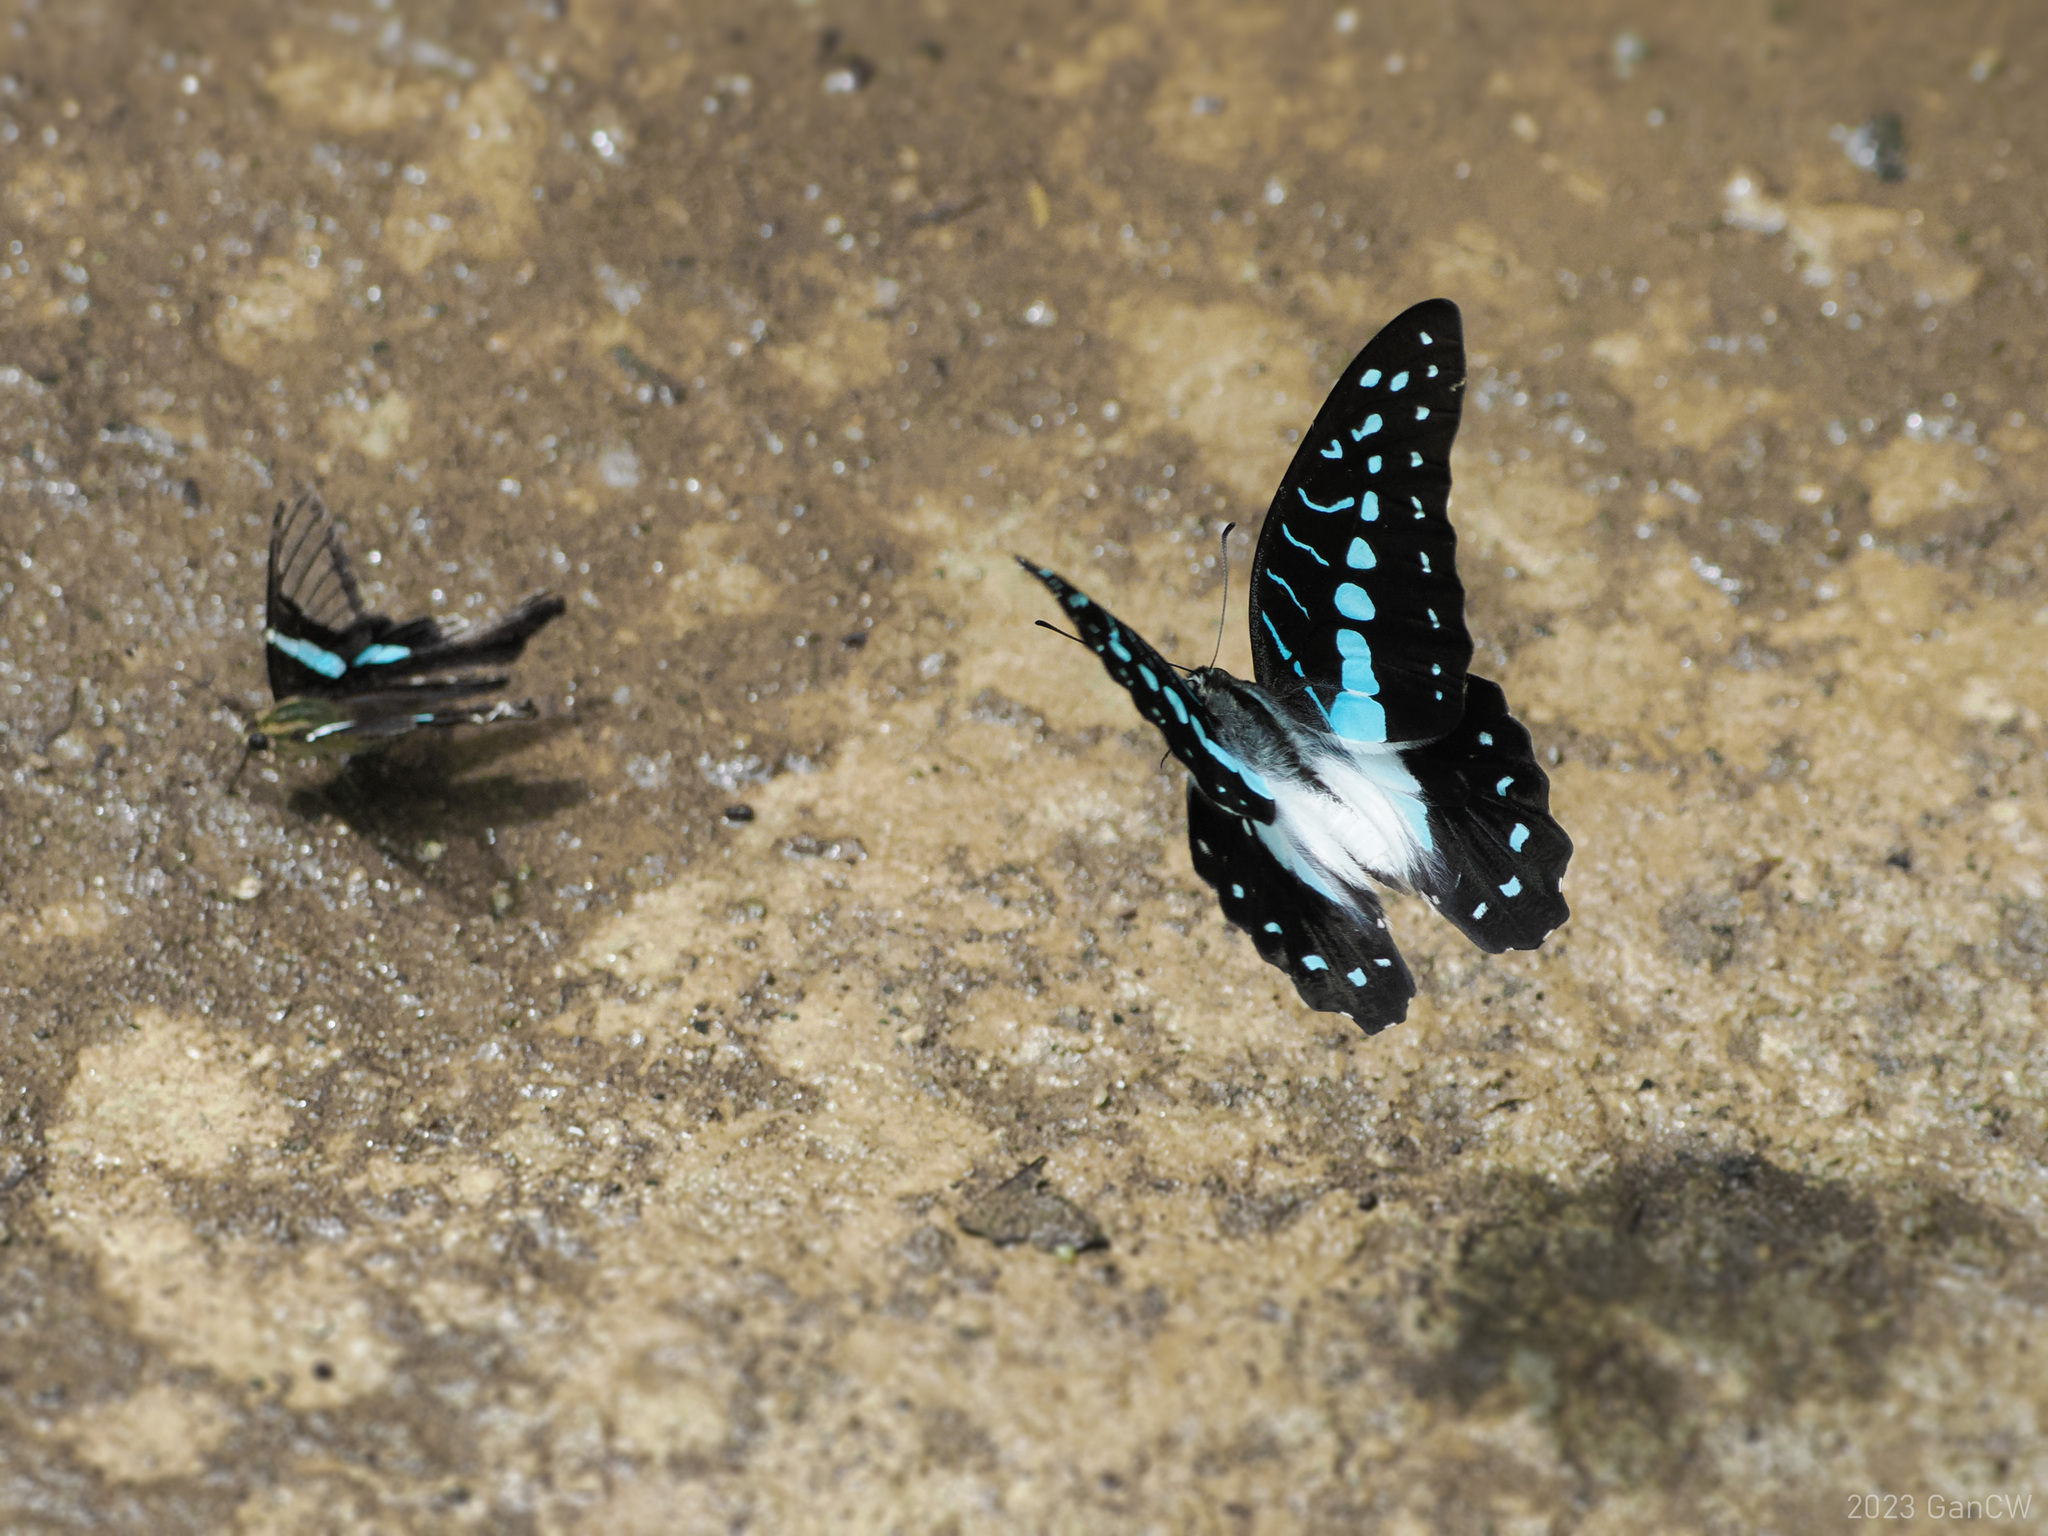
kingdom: Animalia
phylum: Arthropoda
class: Insecta
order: Lepidoptera
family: Papilionidae
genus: Graphium
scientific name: Graphium meyeri
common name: Meyer's triangle
